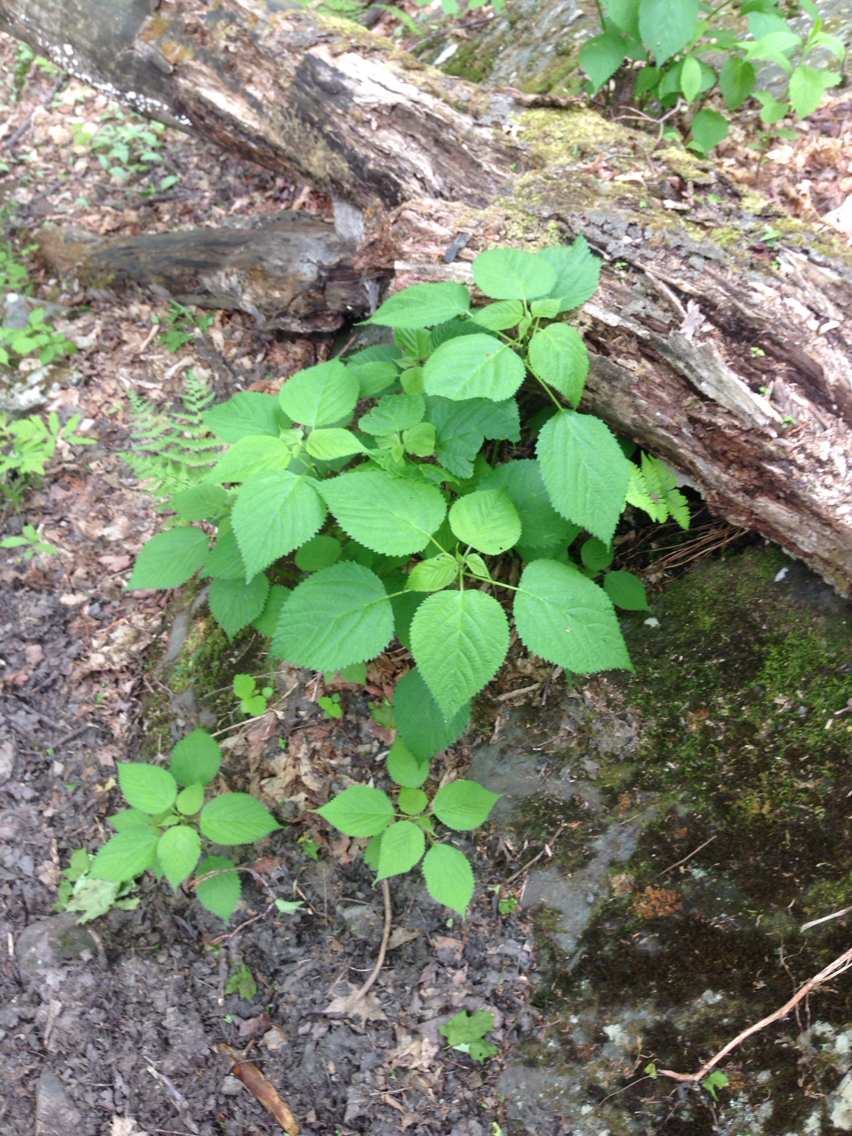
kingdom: Plantae
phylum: Tracheophyta
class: Magnoliopsida
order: Rosales
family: Urticaceae
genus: Laportea
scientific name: Laportea canadensis
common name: Canada nettle
